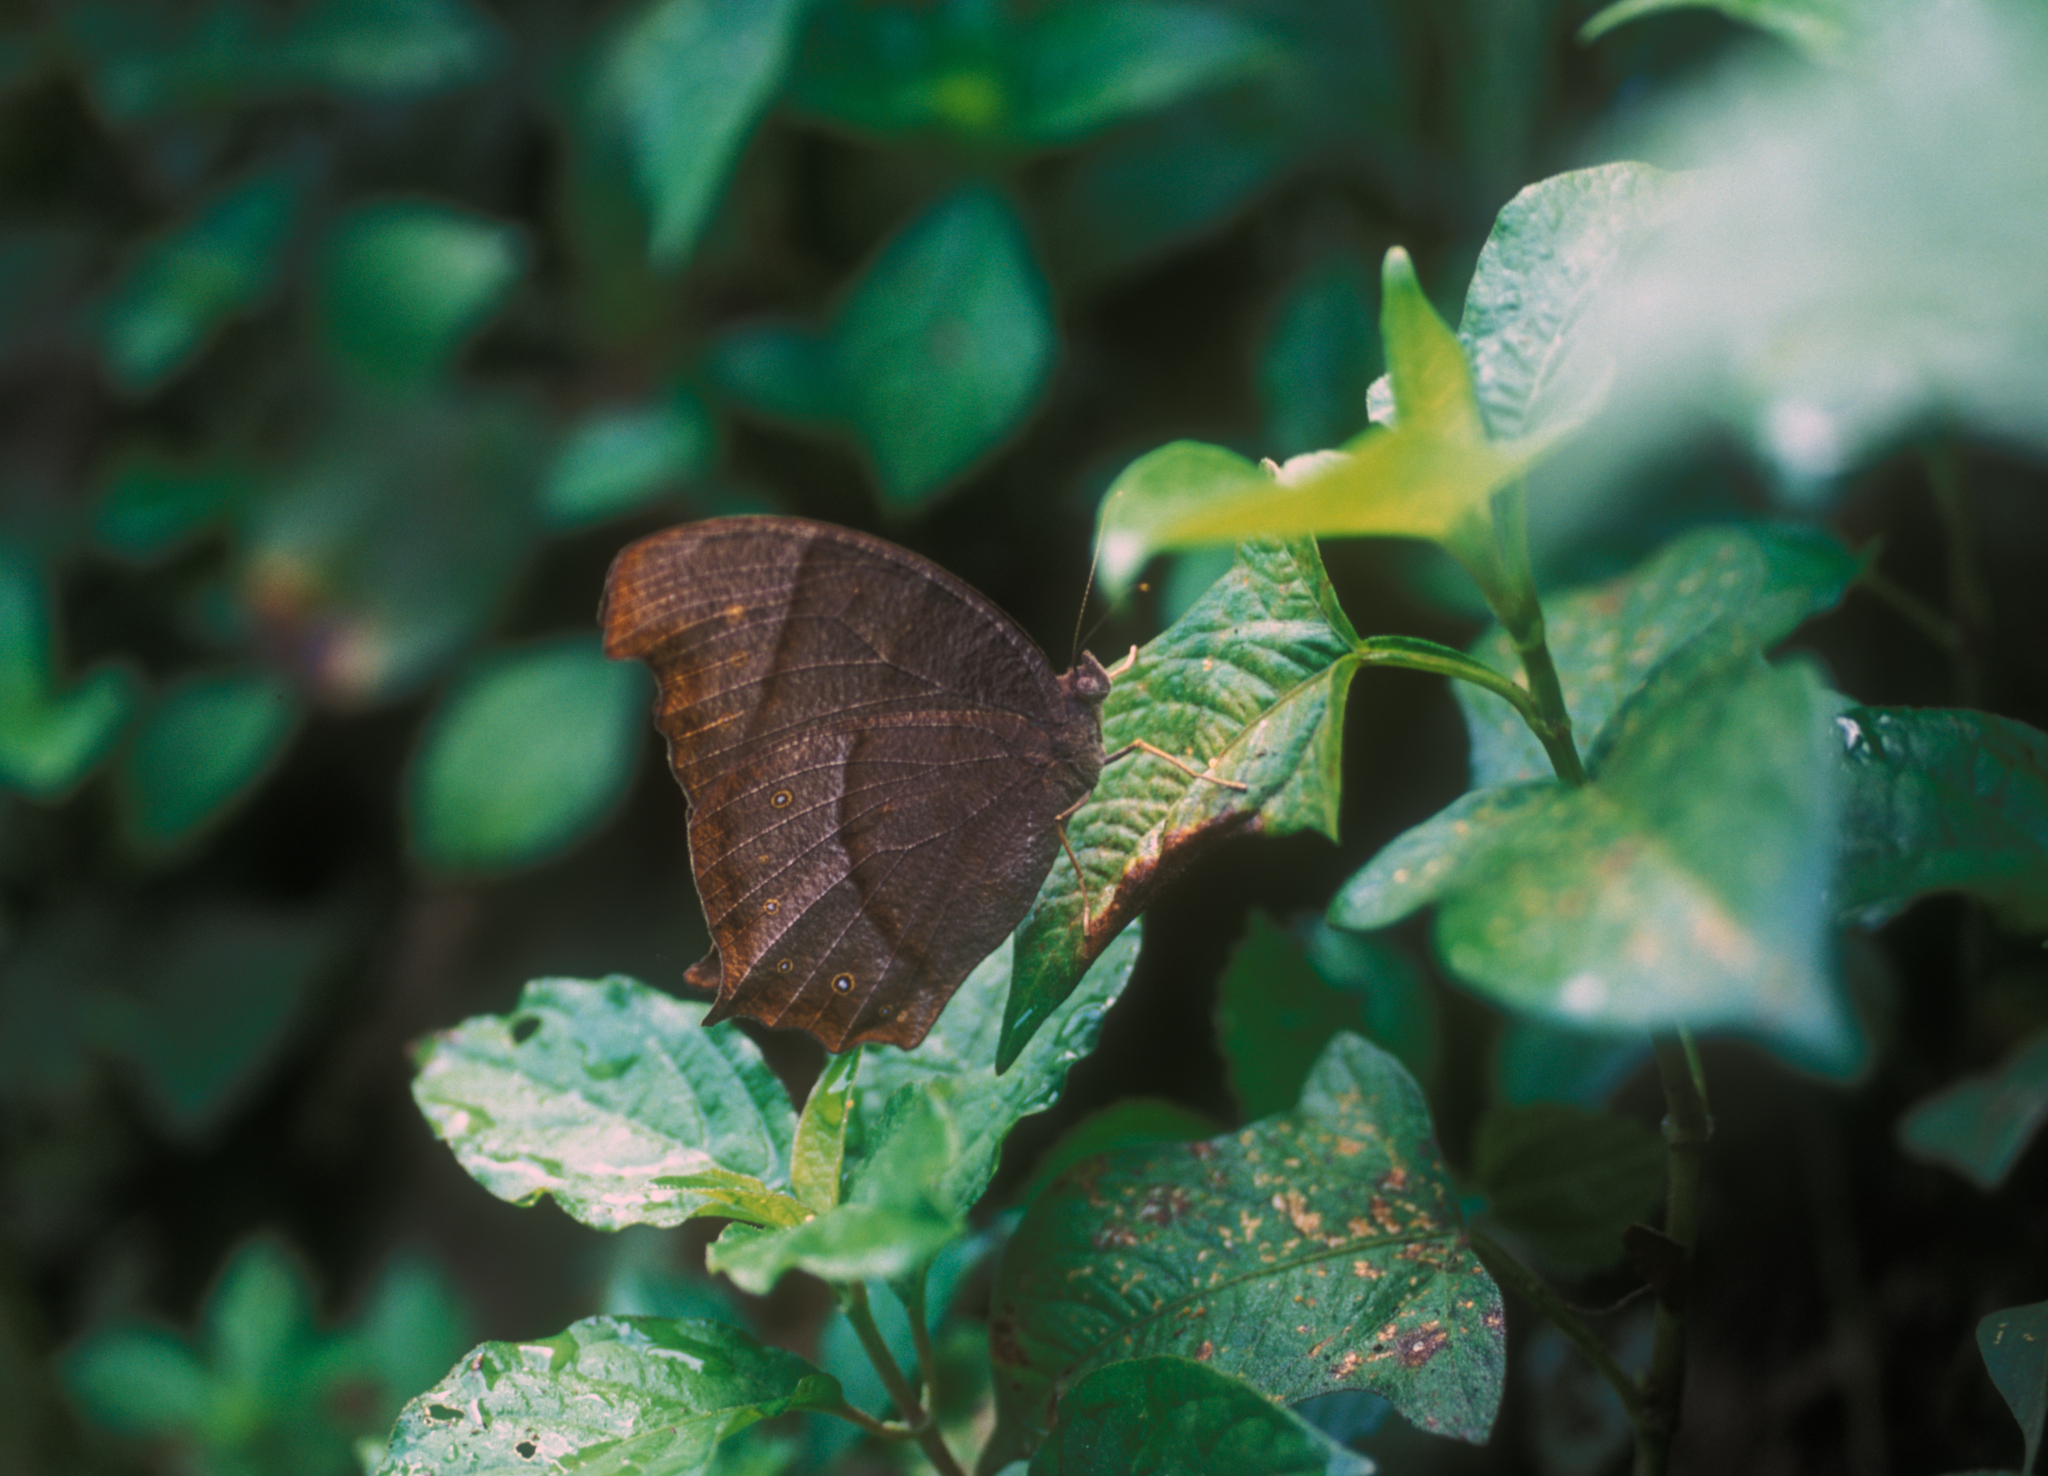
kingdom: Animalia
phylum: Arthropoda
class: Insecta
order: Lepidoptera
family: Nymphalidae
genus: Melanitis
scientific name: Melanitis phedima
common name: Dark evening brown
